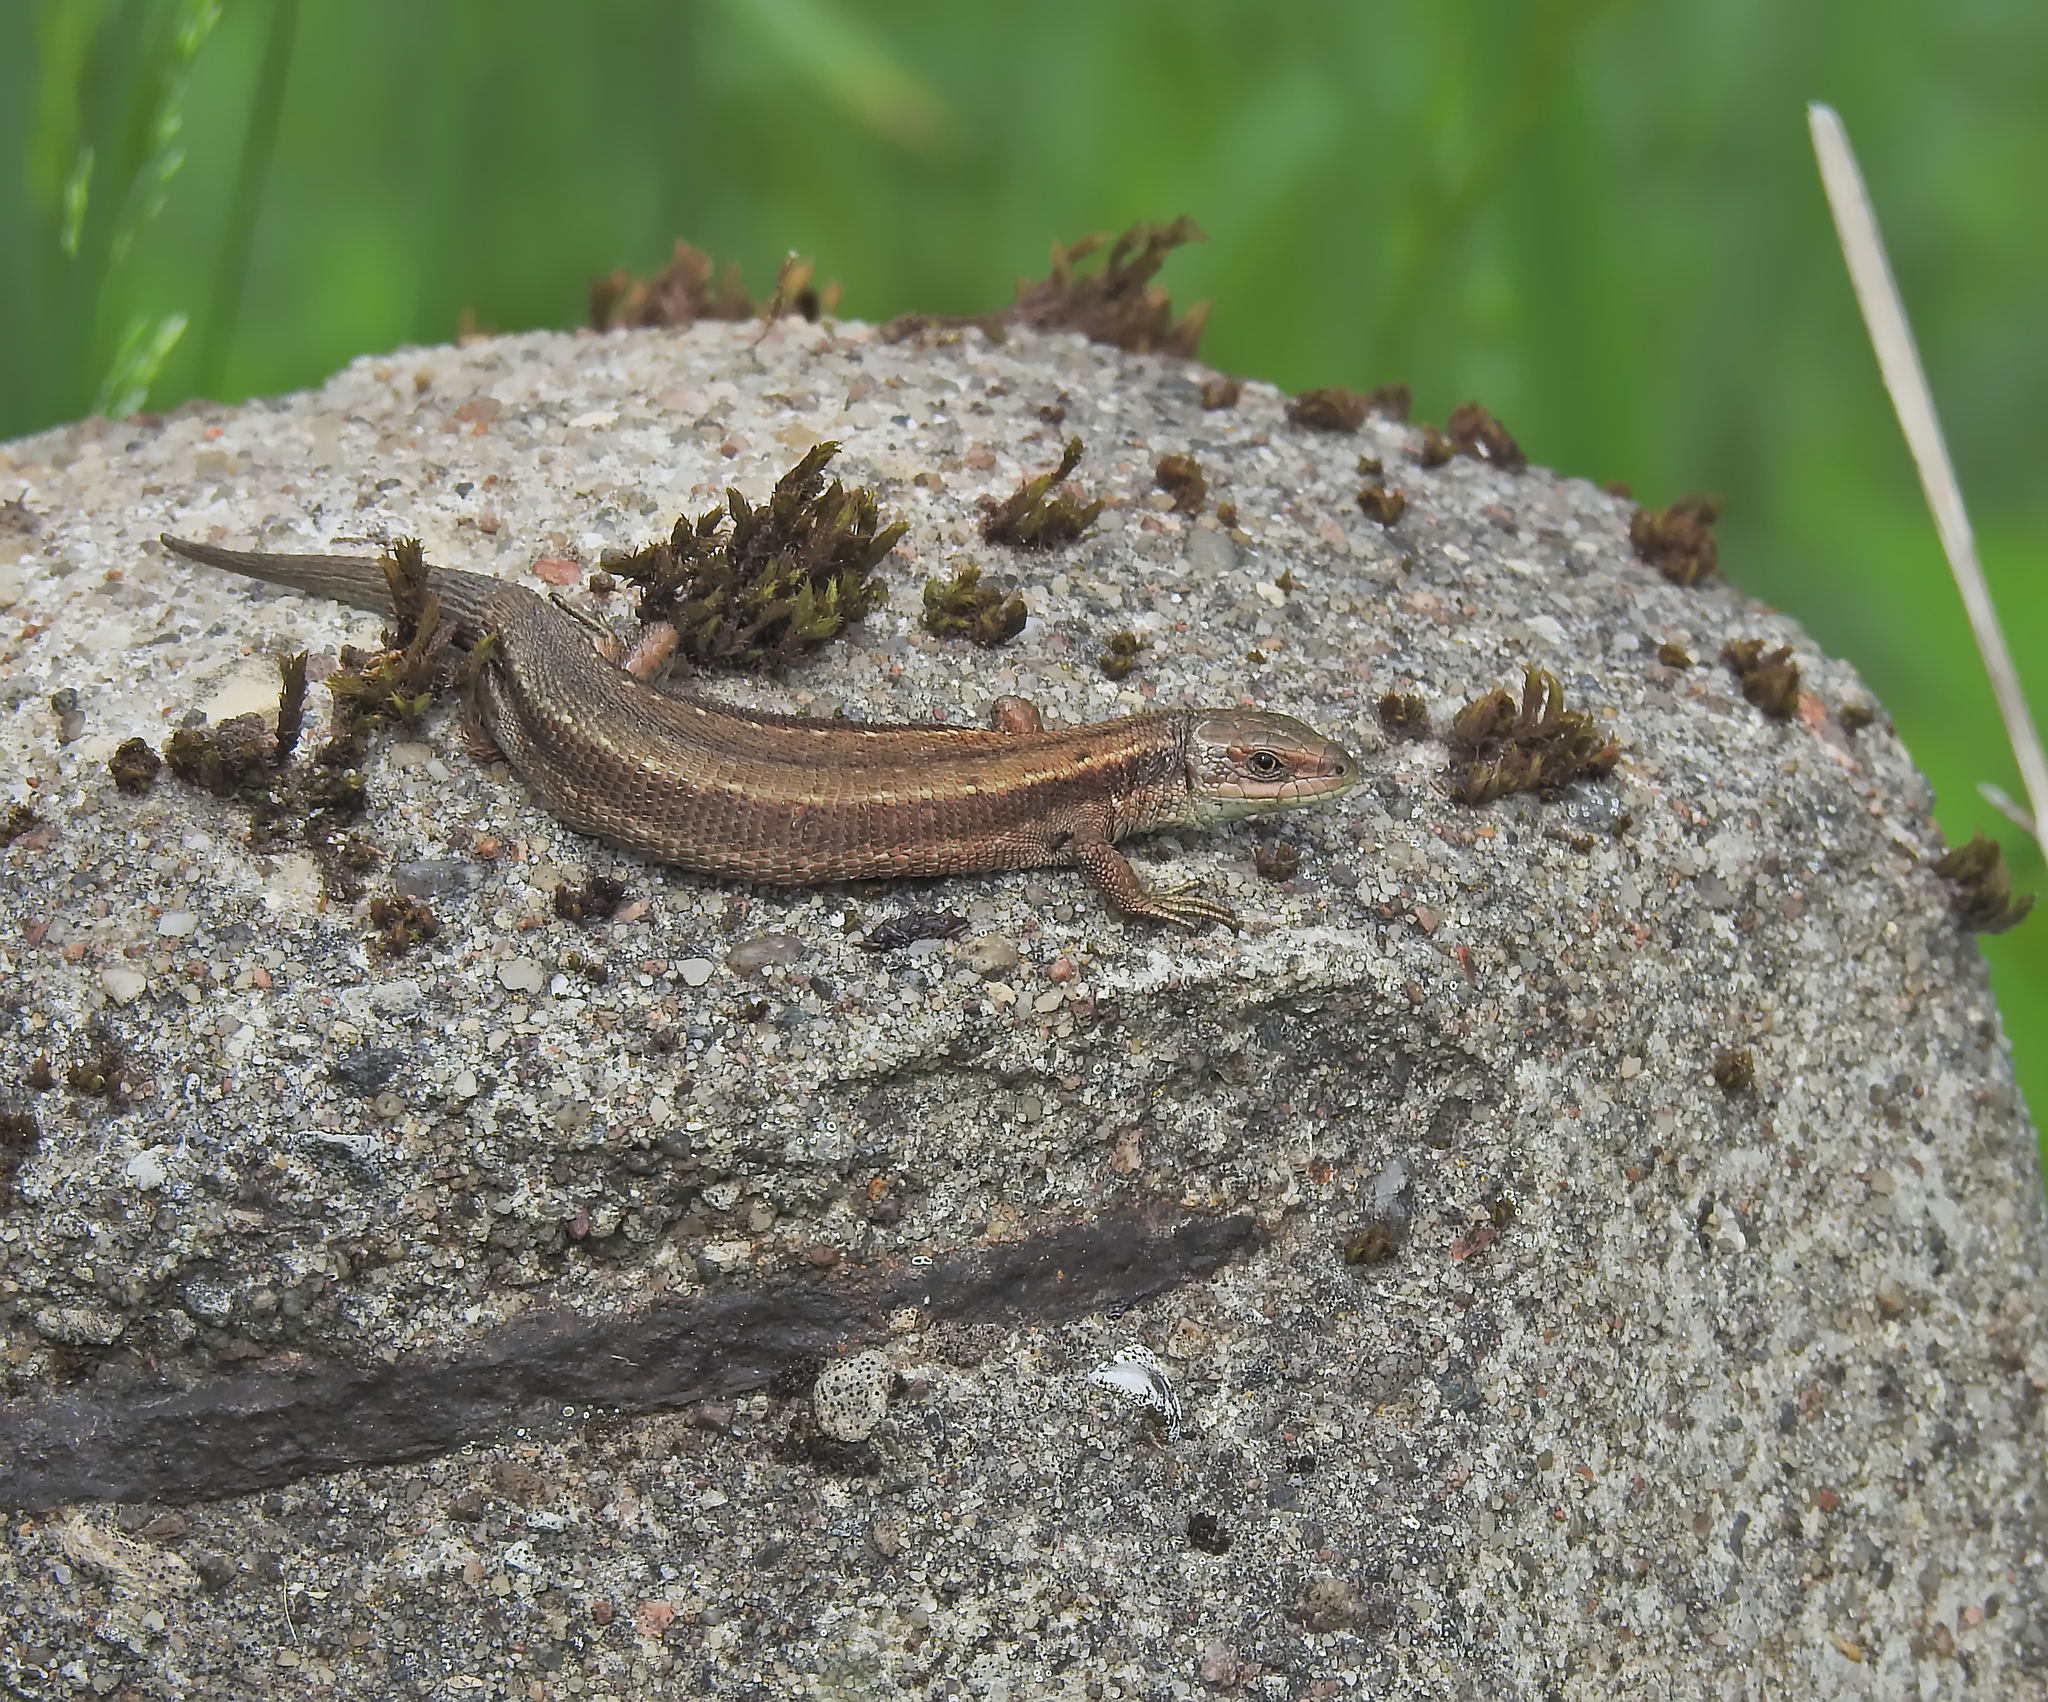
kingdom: Animalia
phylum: Chordata
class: Squamata
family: Lacertidae
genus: Zootoca
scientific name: Zootoca vivipara
